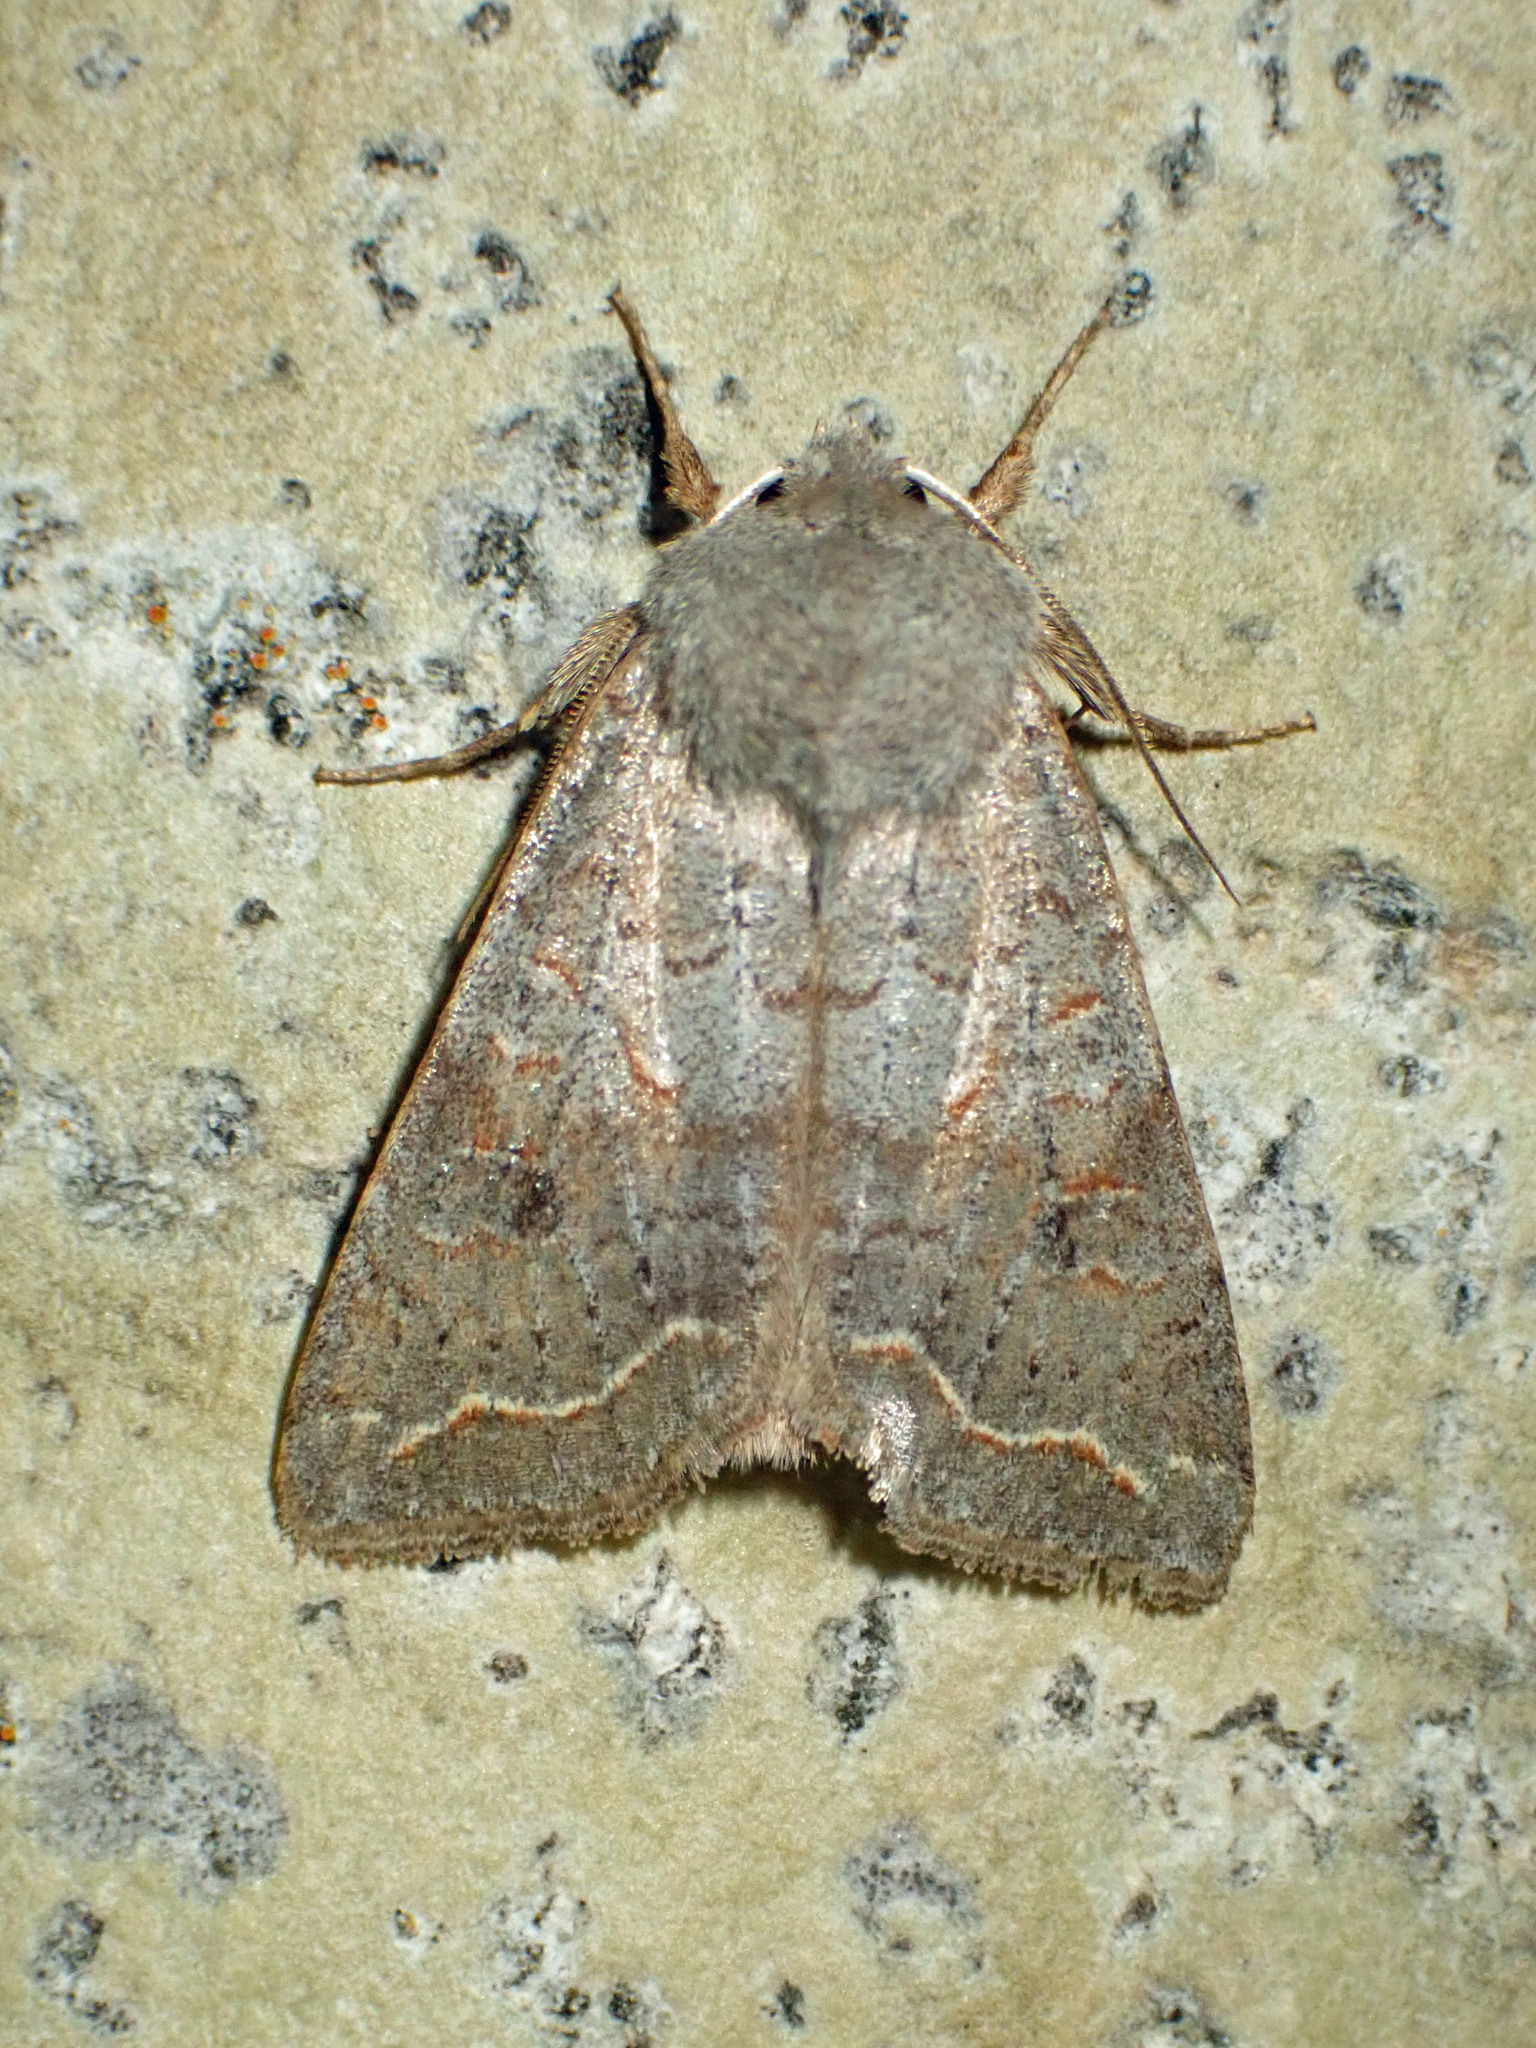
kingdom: Animalia
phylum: Arthropoda
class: Insecta
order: Lepidoptera
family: Noctuidae
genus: Orthosia
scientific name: Orthosia revicta
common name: Rusty whitesided caterpillar
